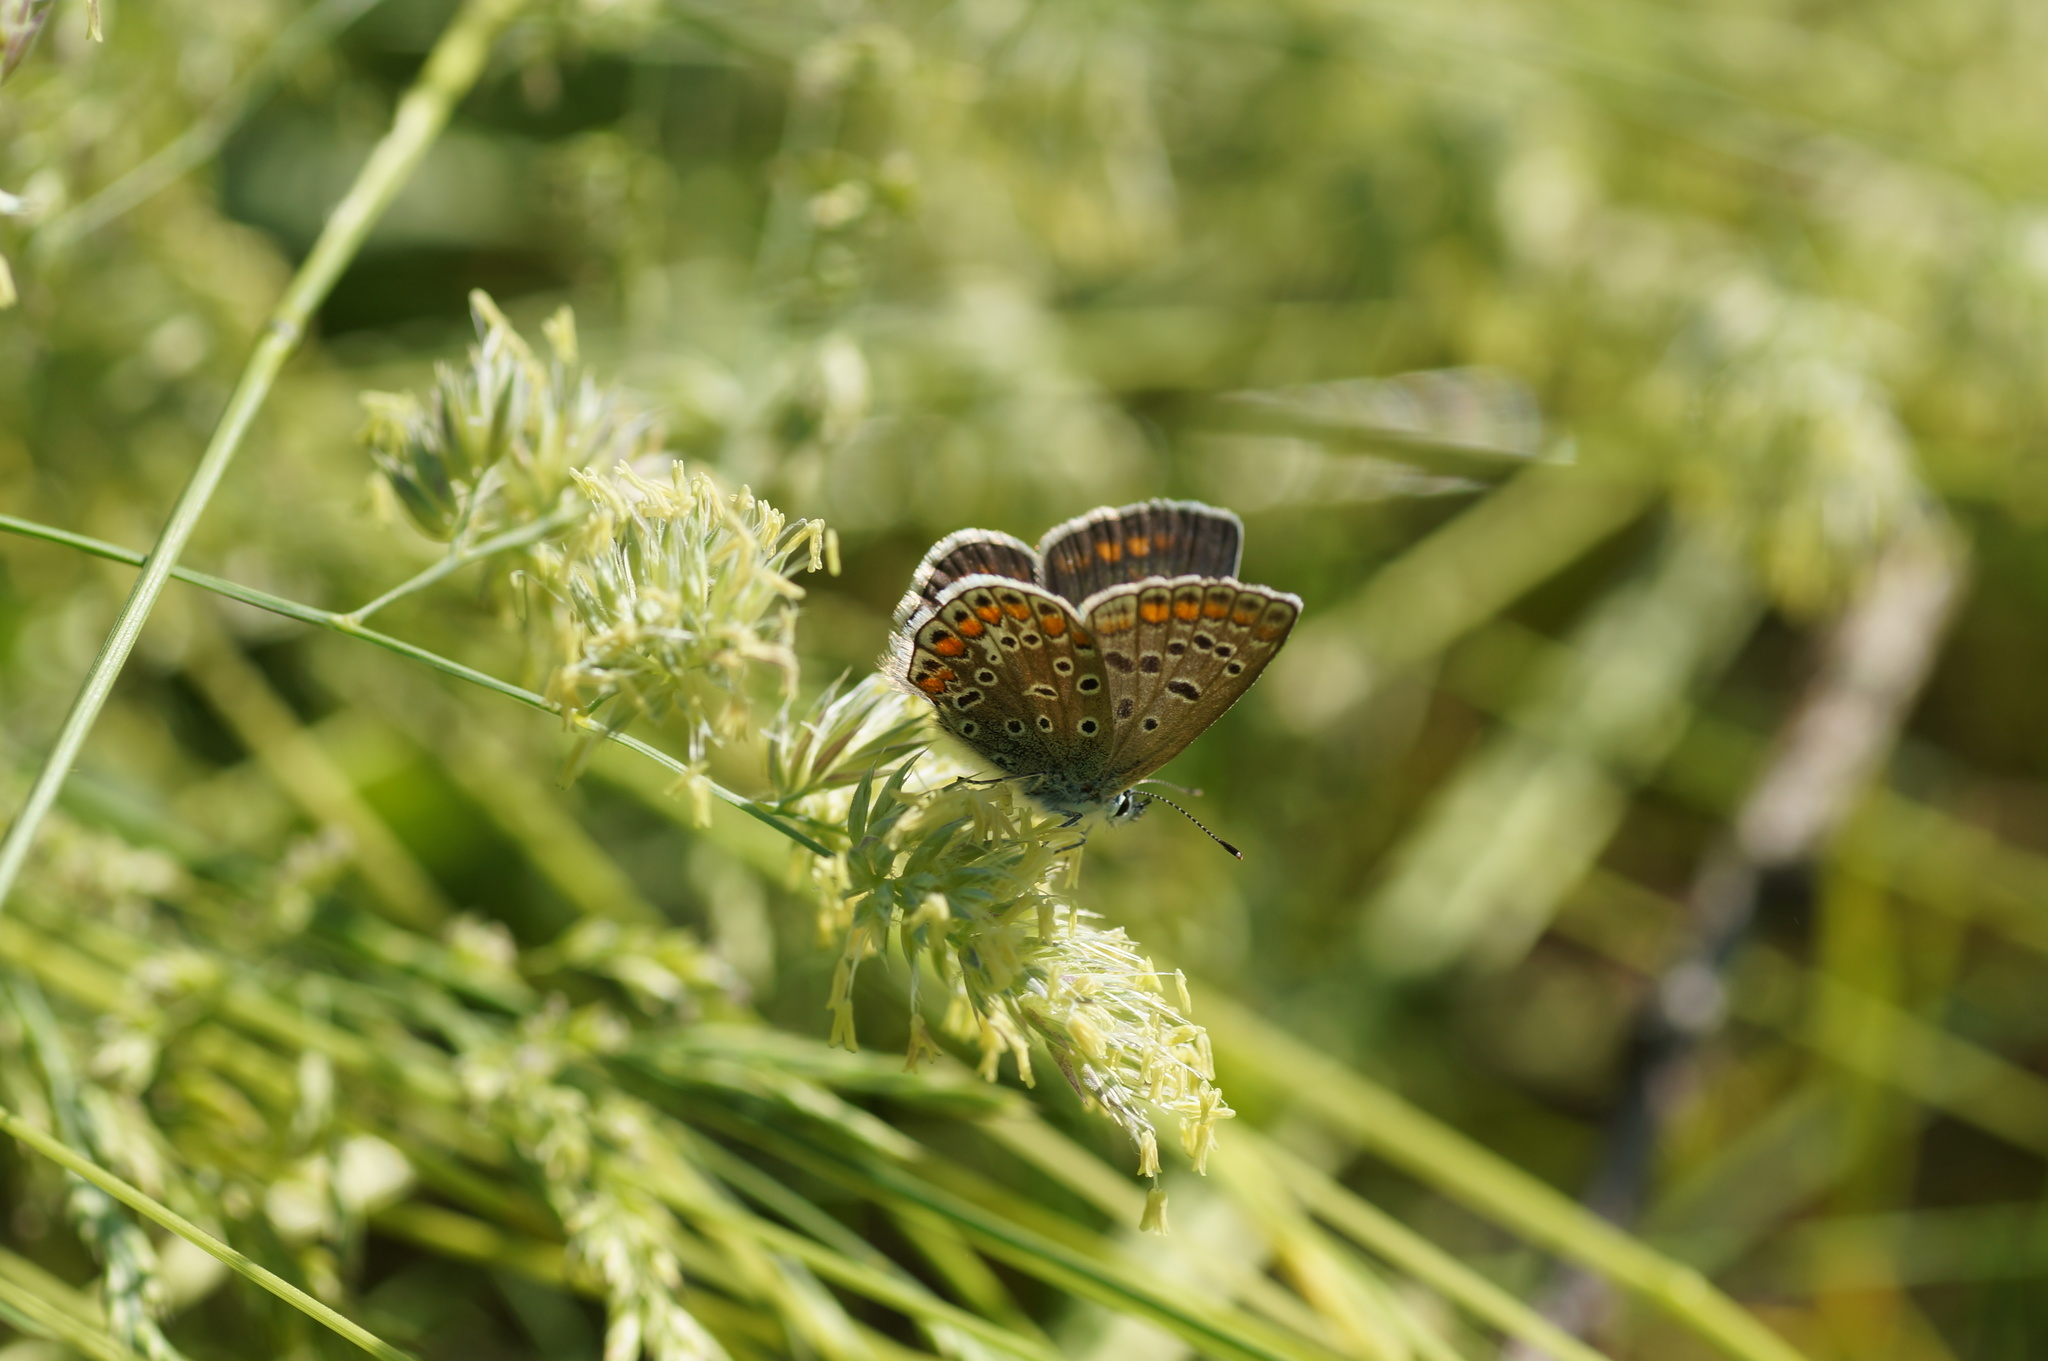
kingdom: Animalia
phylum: Arthropoda
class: Insecta
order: Lepidoptera
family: Lycaenidae
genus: Polyommatus
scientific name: Polyommatus icarus
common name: Common blue
